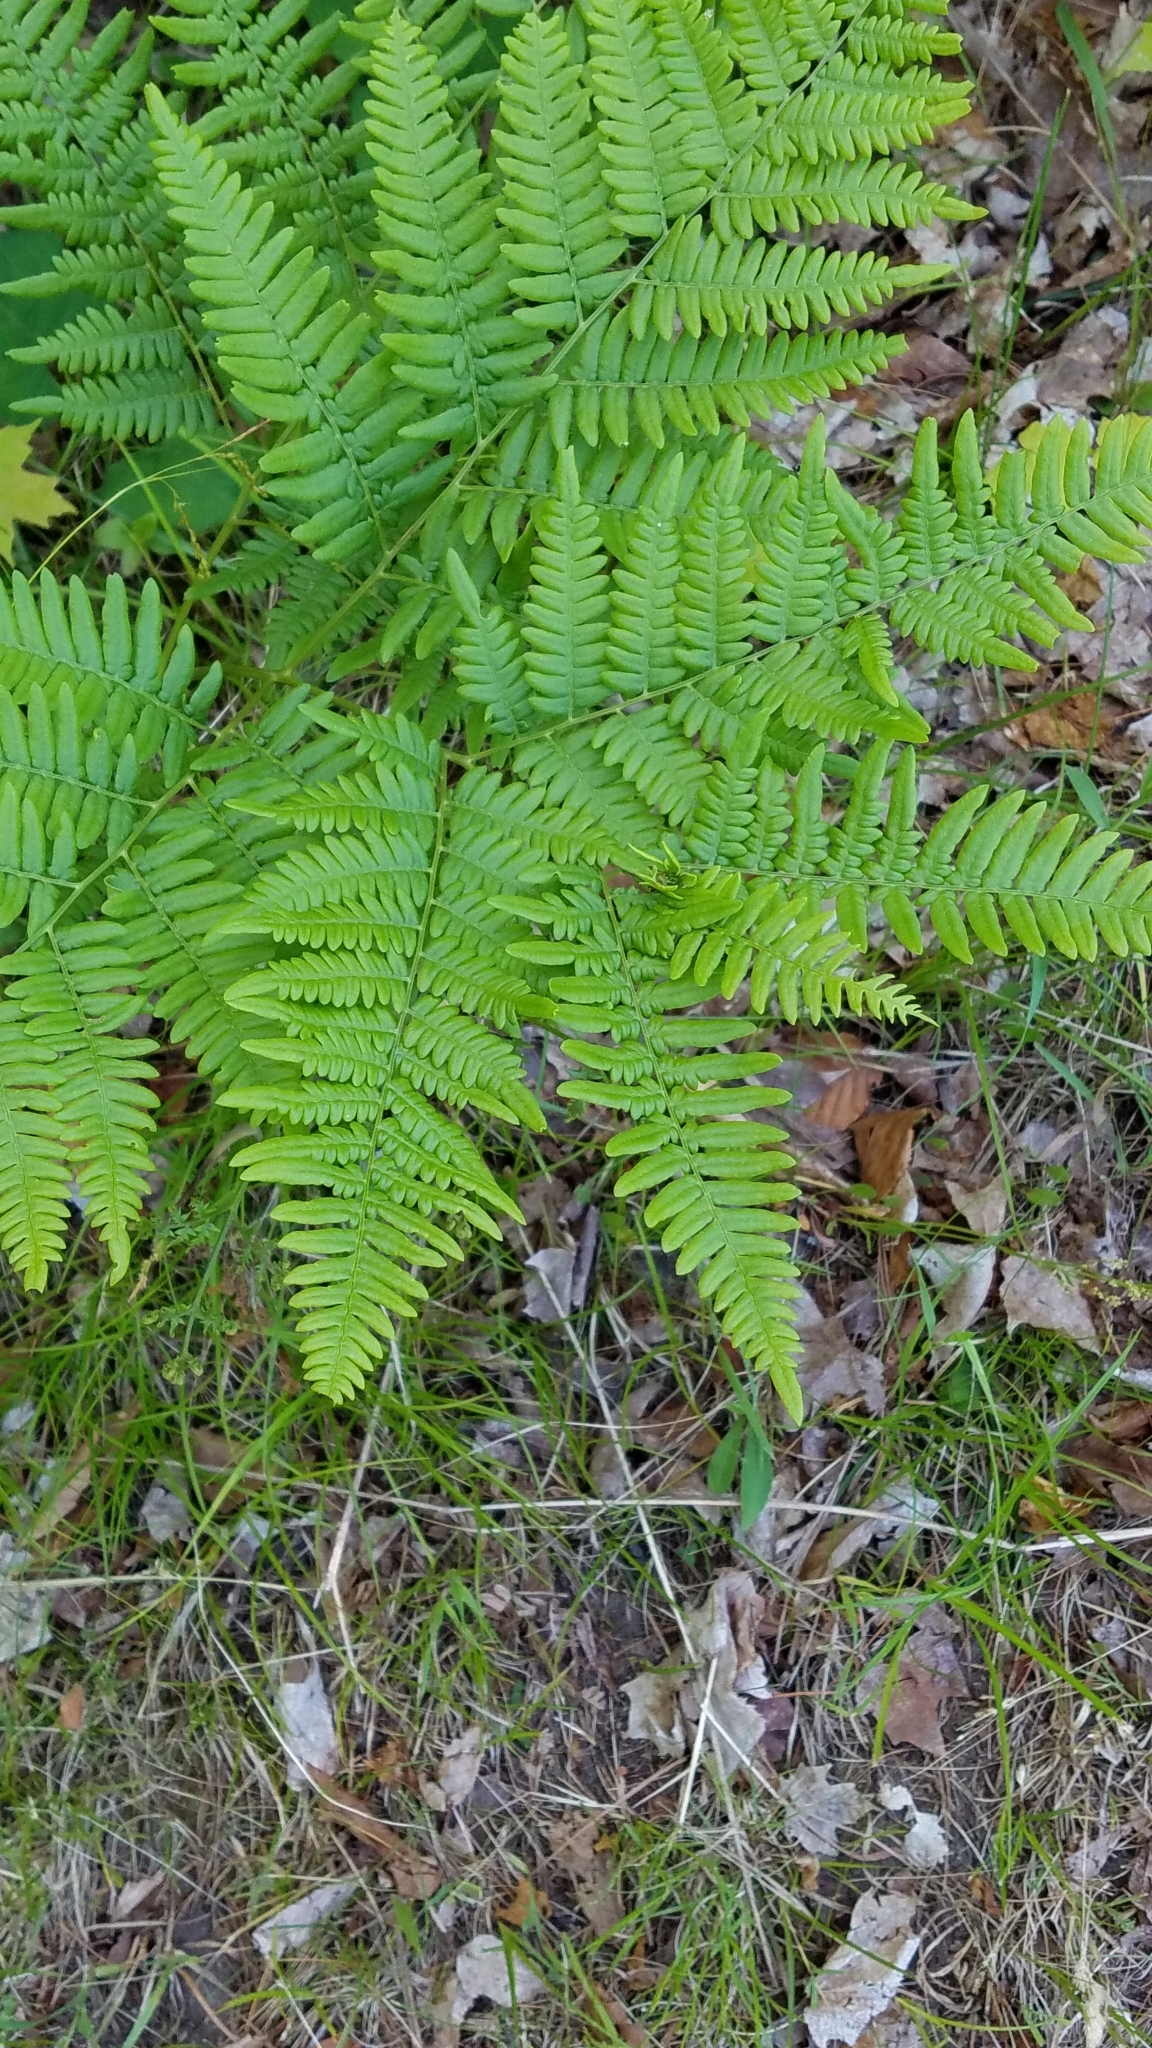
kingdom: Plantae
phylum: Tracheophyta
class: Polypodiopsida
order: Polypodiales
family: Dennstaedtiaceae
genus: Pteridium
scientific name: Pteridium aquilinum
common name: Bracken
